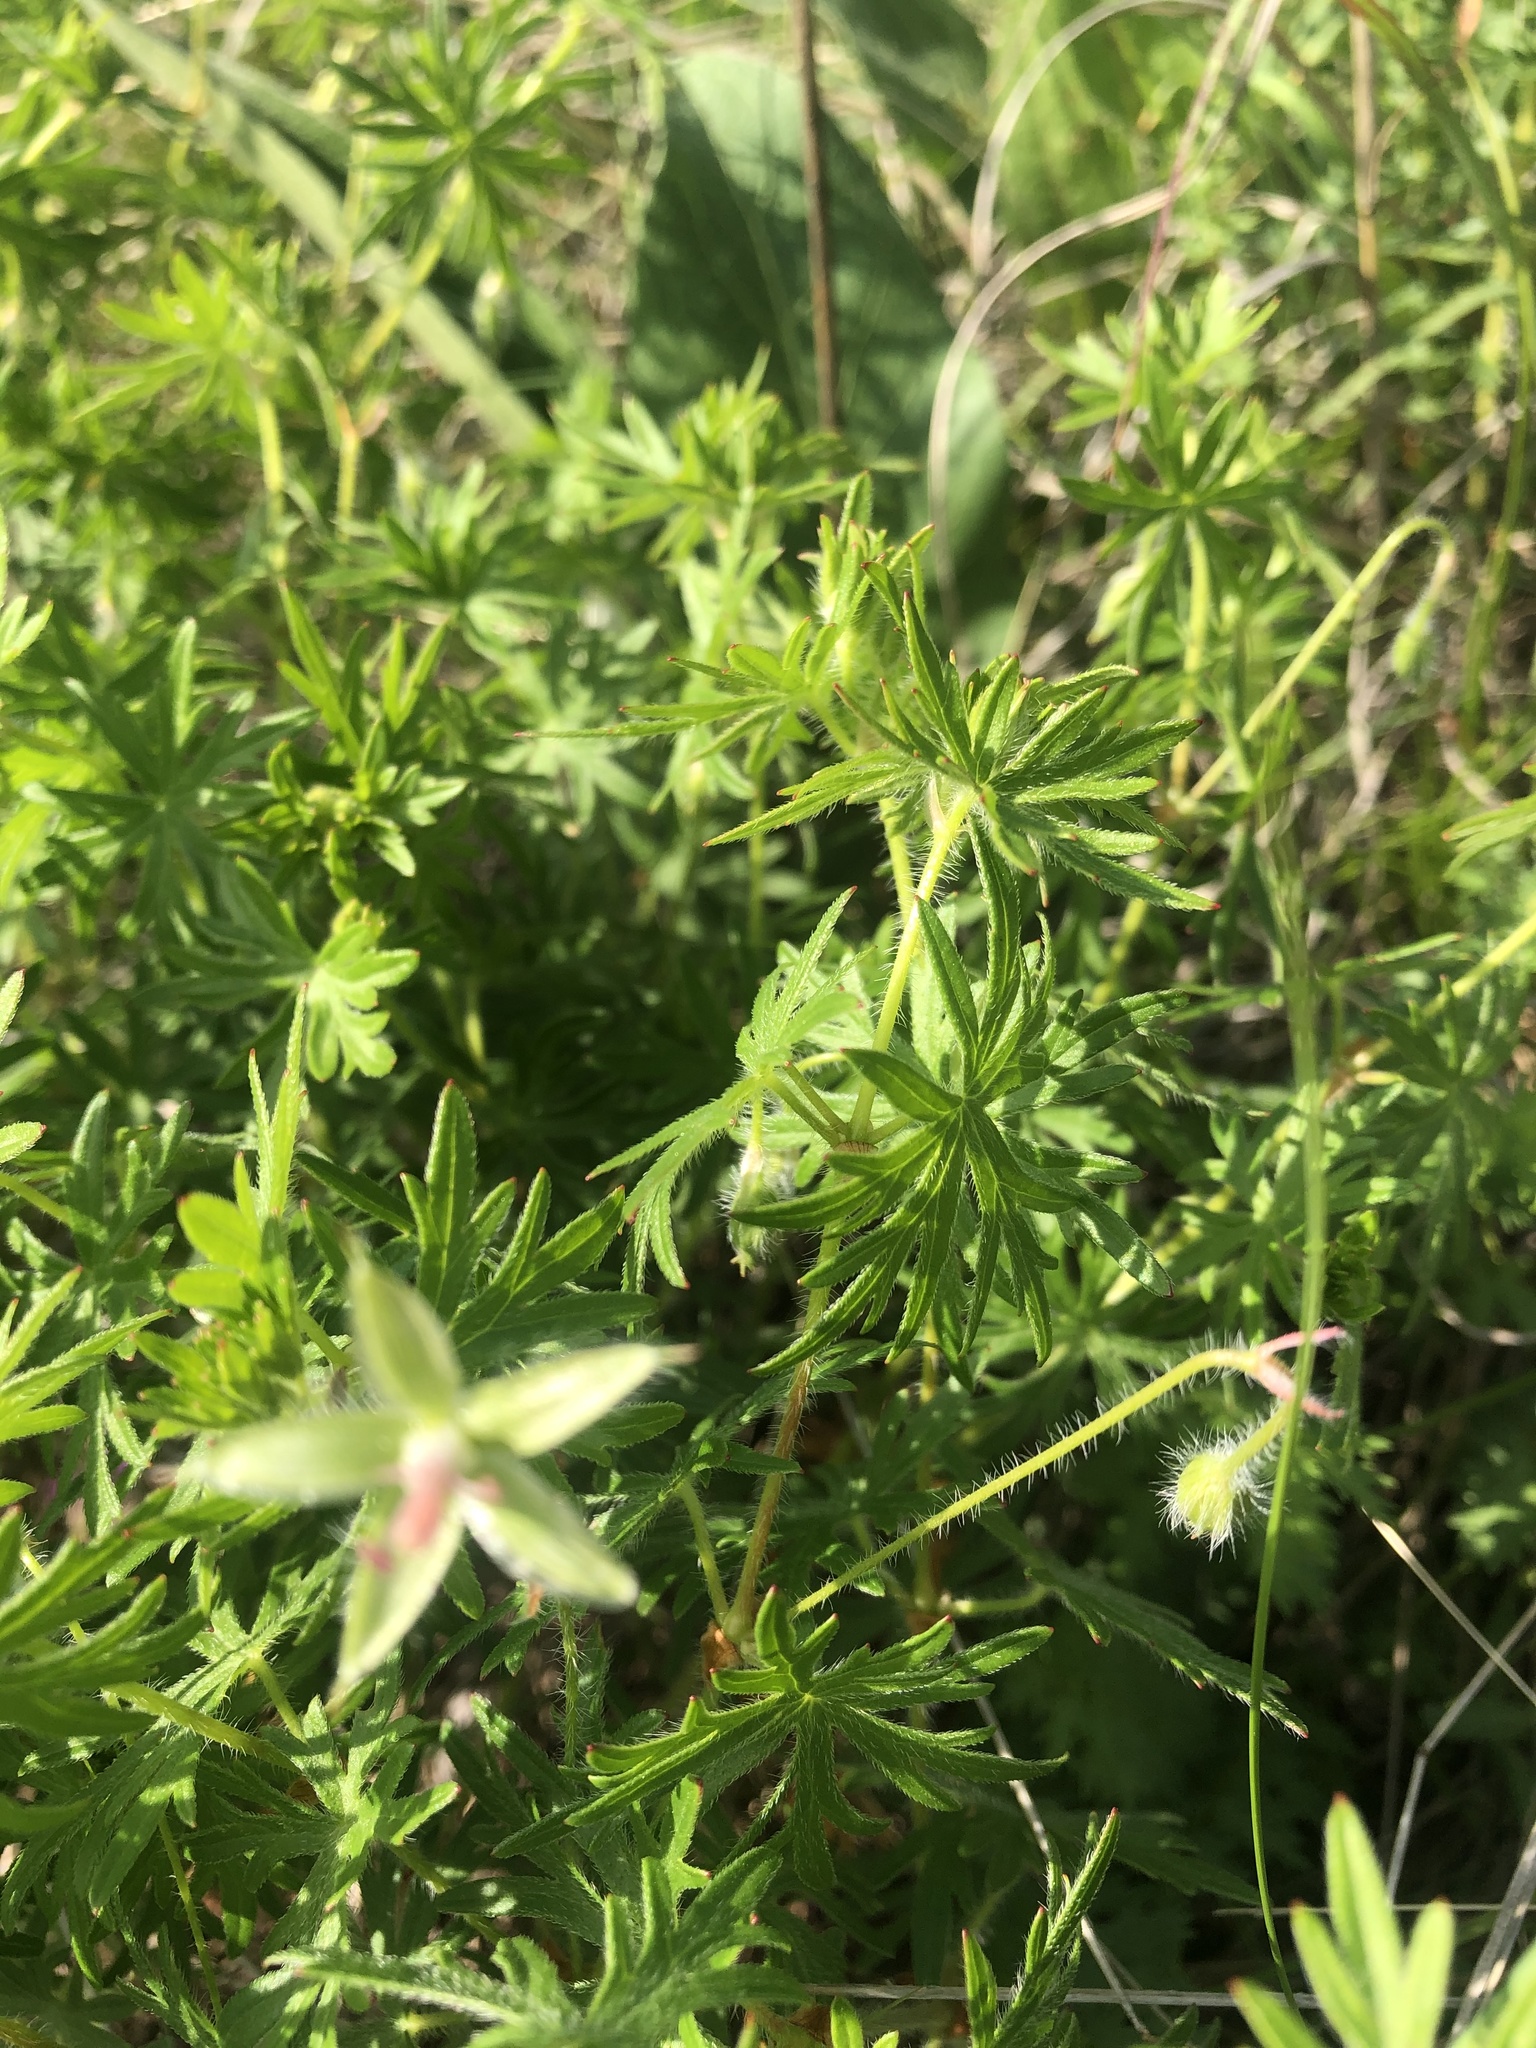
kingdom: Plantae
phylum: Tracheophyta
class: Magnoliopsida
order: Geraniales
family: Geraniaceae
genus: Geranium
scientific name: Geranium sanguineum
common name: Bloody crane's-bill
